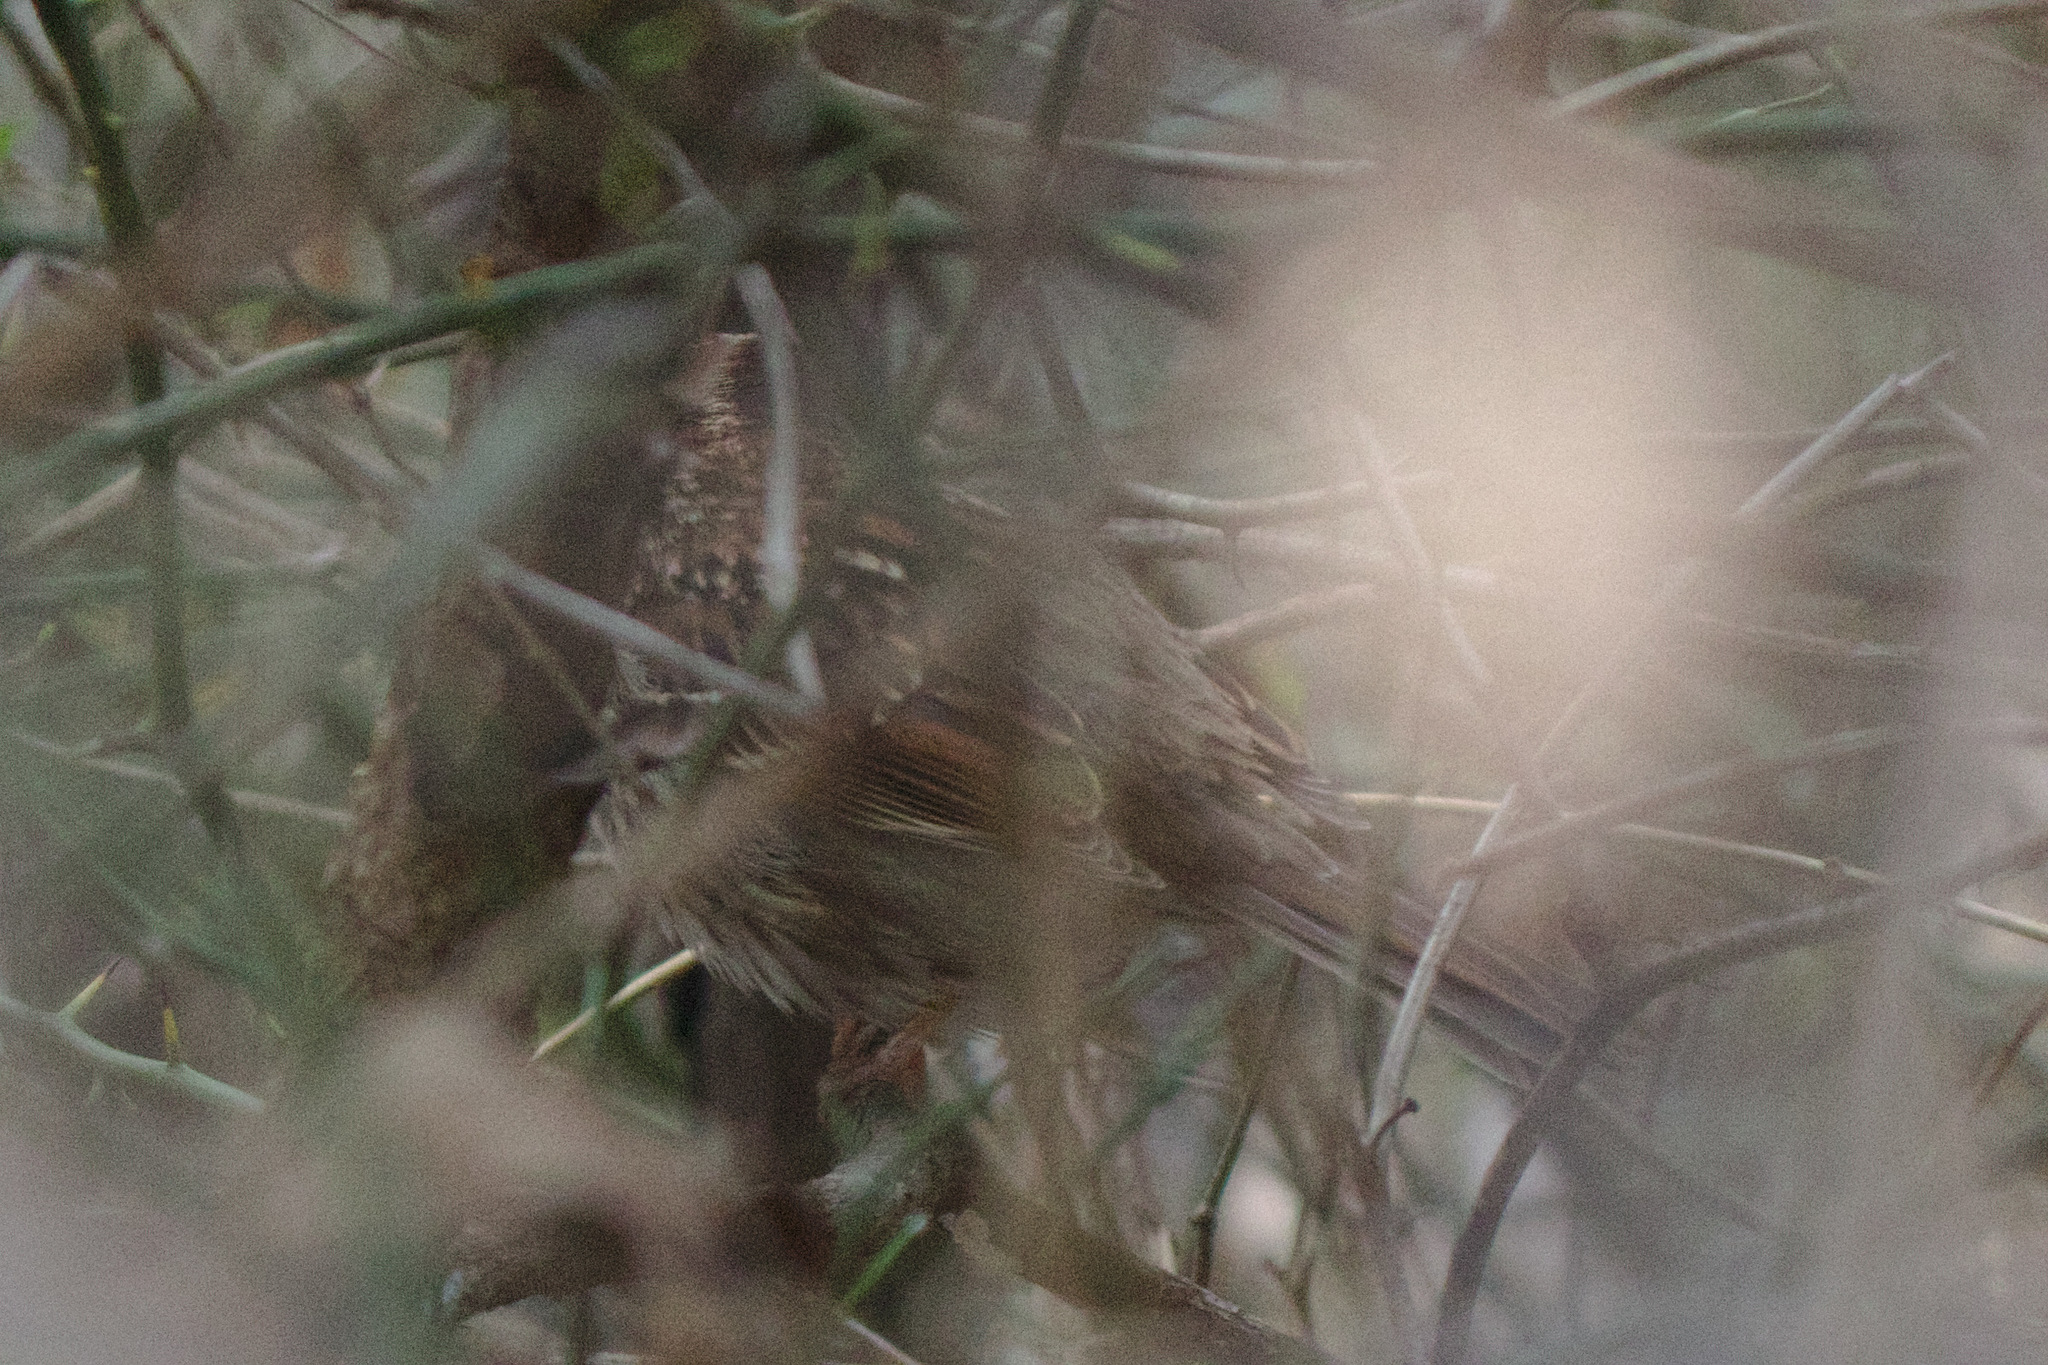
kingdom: Animalia
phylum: Chordata
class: Aves
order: Passeriformes
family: Passerellidae
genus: Zonotrichia
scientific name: Zonotrichia albicollis
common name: White-throated sparrow
